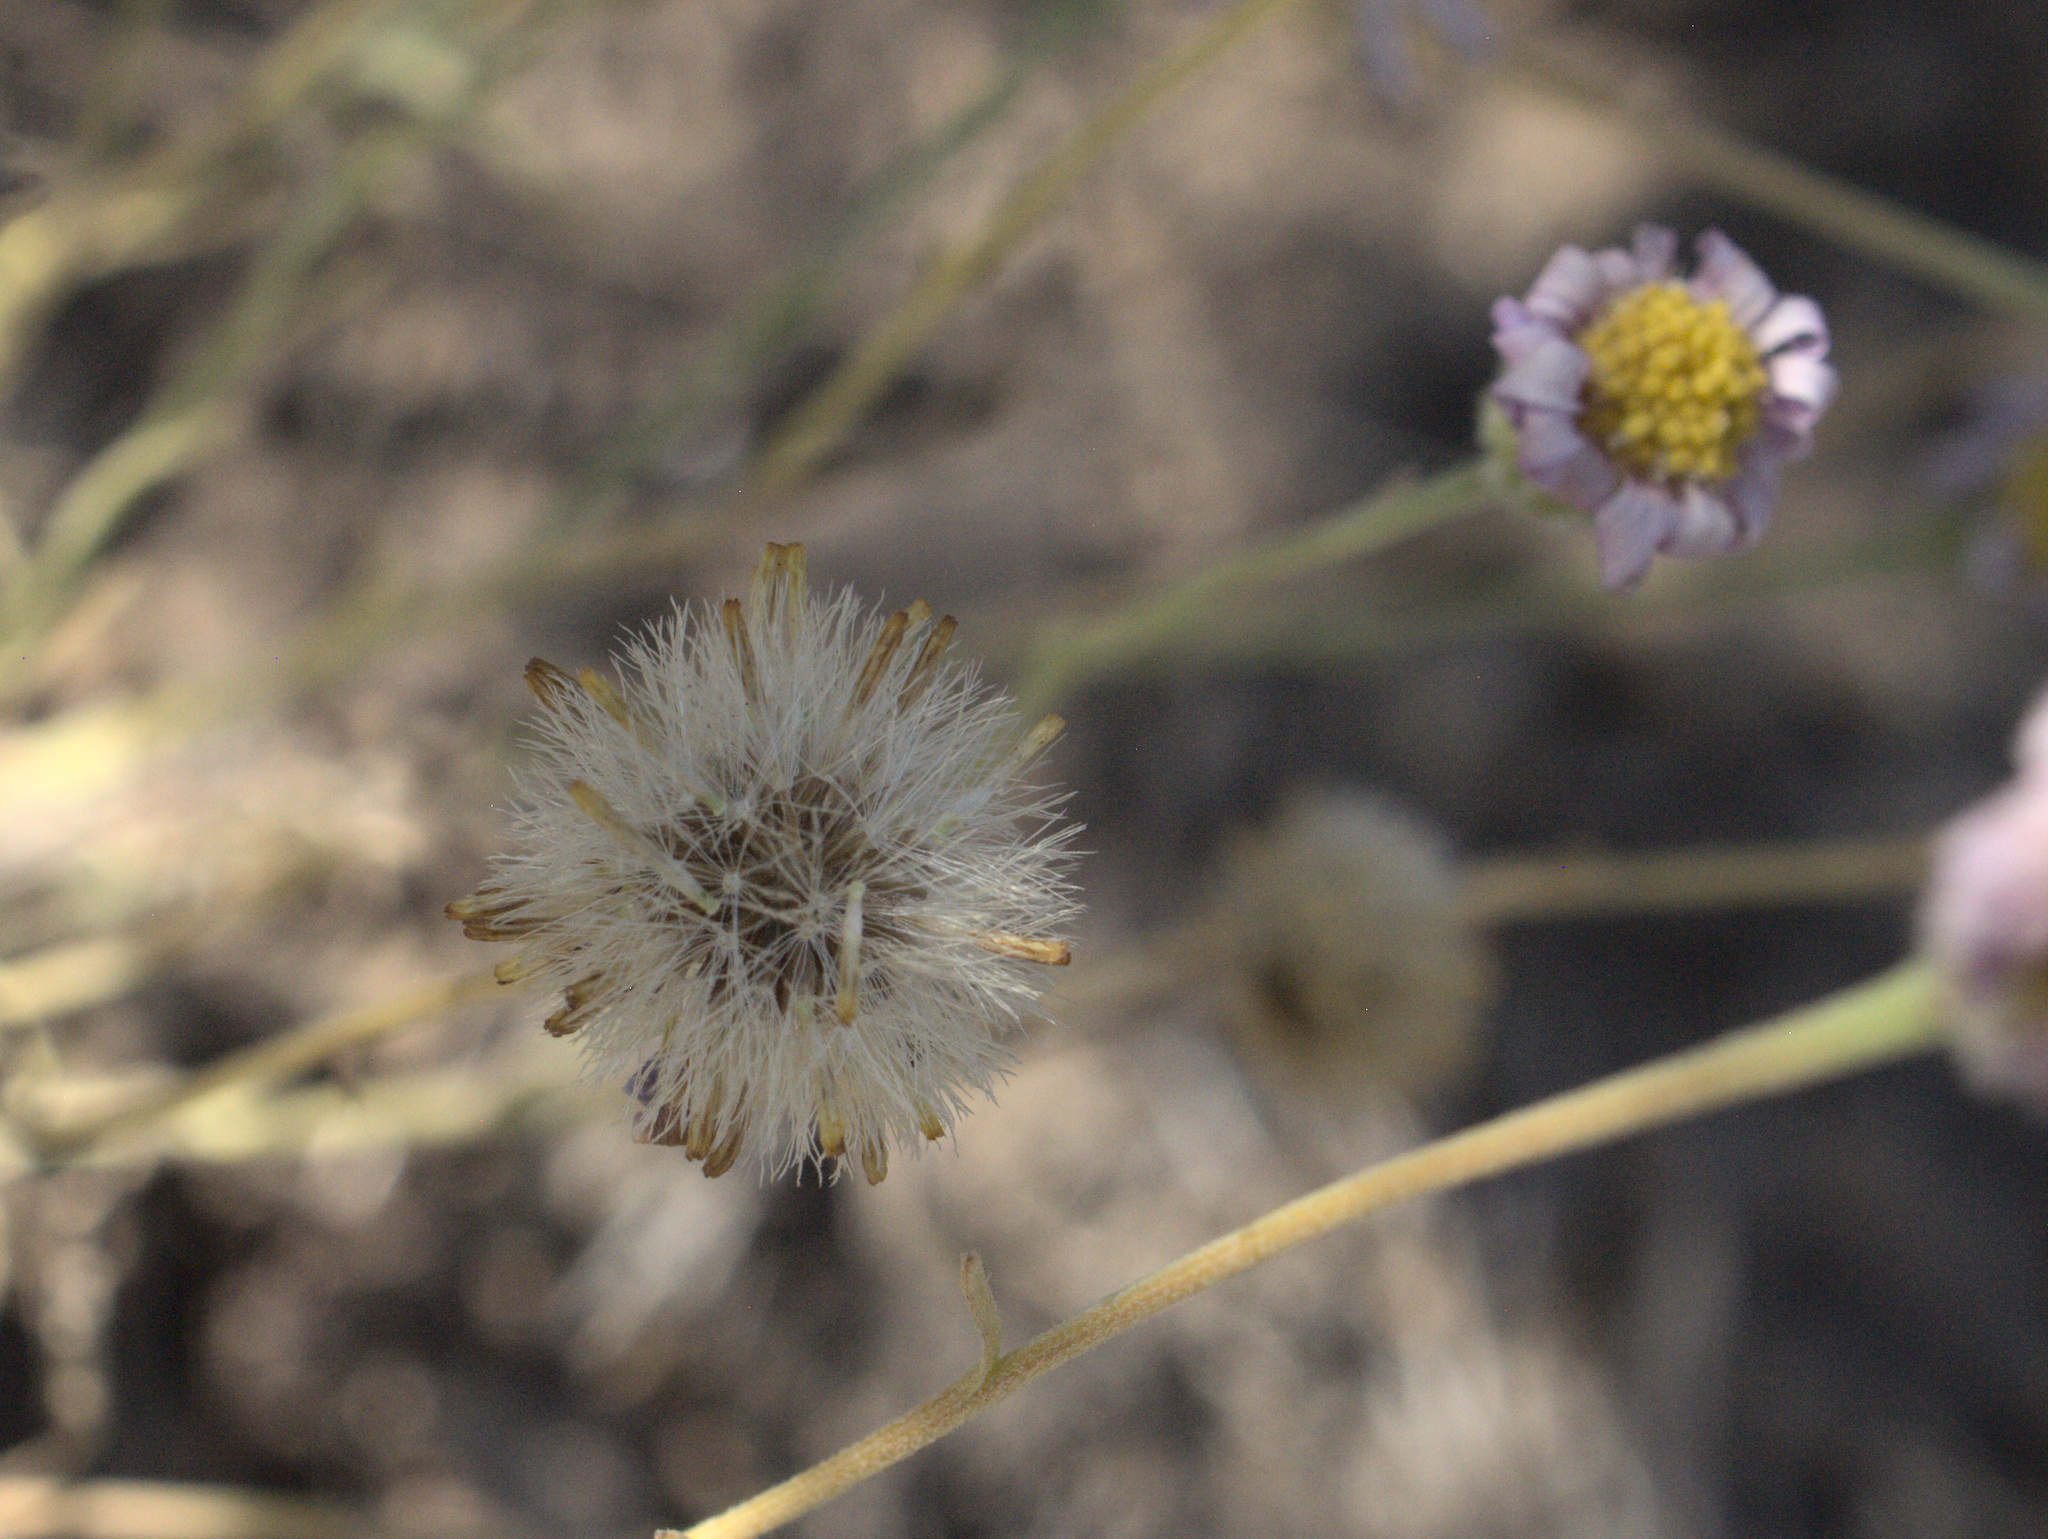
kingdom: Plantae
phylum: Tracheophyta
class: Magnoliopsida
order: Asterales
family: Asteraceae
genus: Erigeron
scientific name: Erigeron filifolius
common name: Threadleaf fleabane
